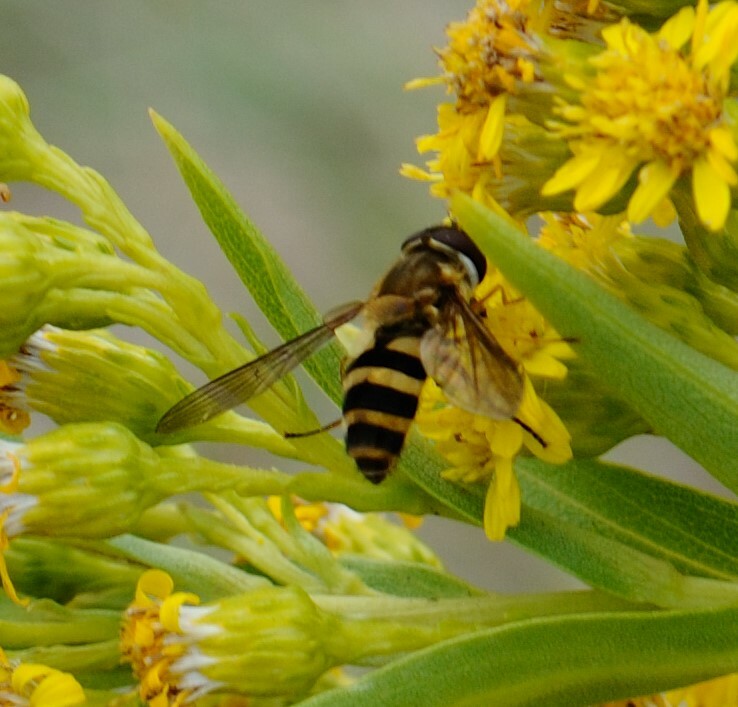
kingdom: Animalia
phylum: Arthropoda
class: Insecta
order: Diptera
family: Syrphidae
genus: Epistrophe
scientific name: Epistrophe grossulariae
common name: Black-horned smoothtail
